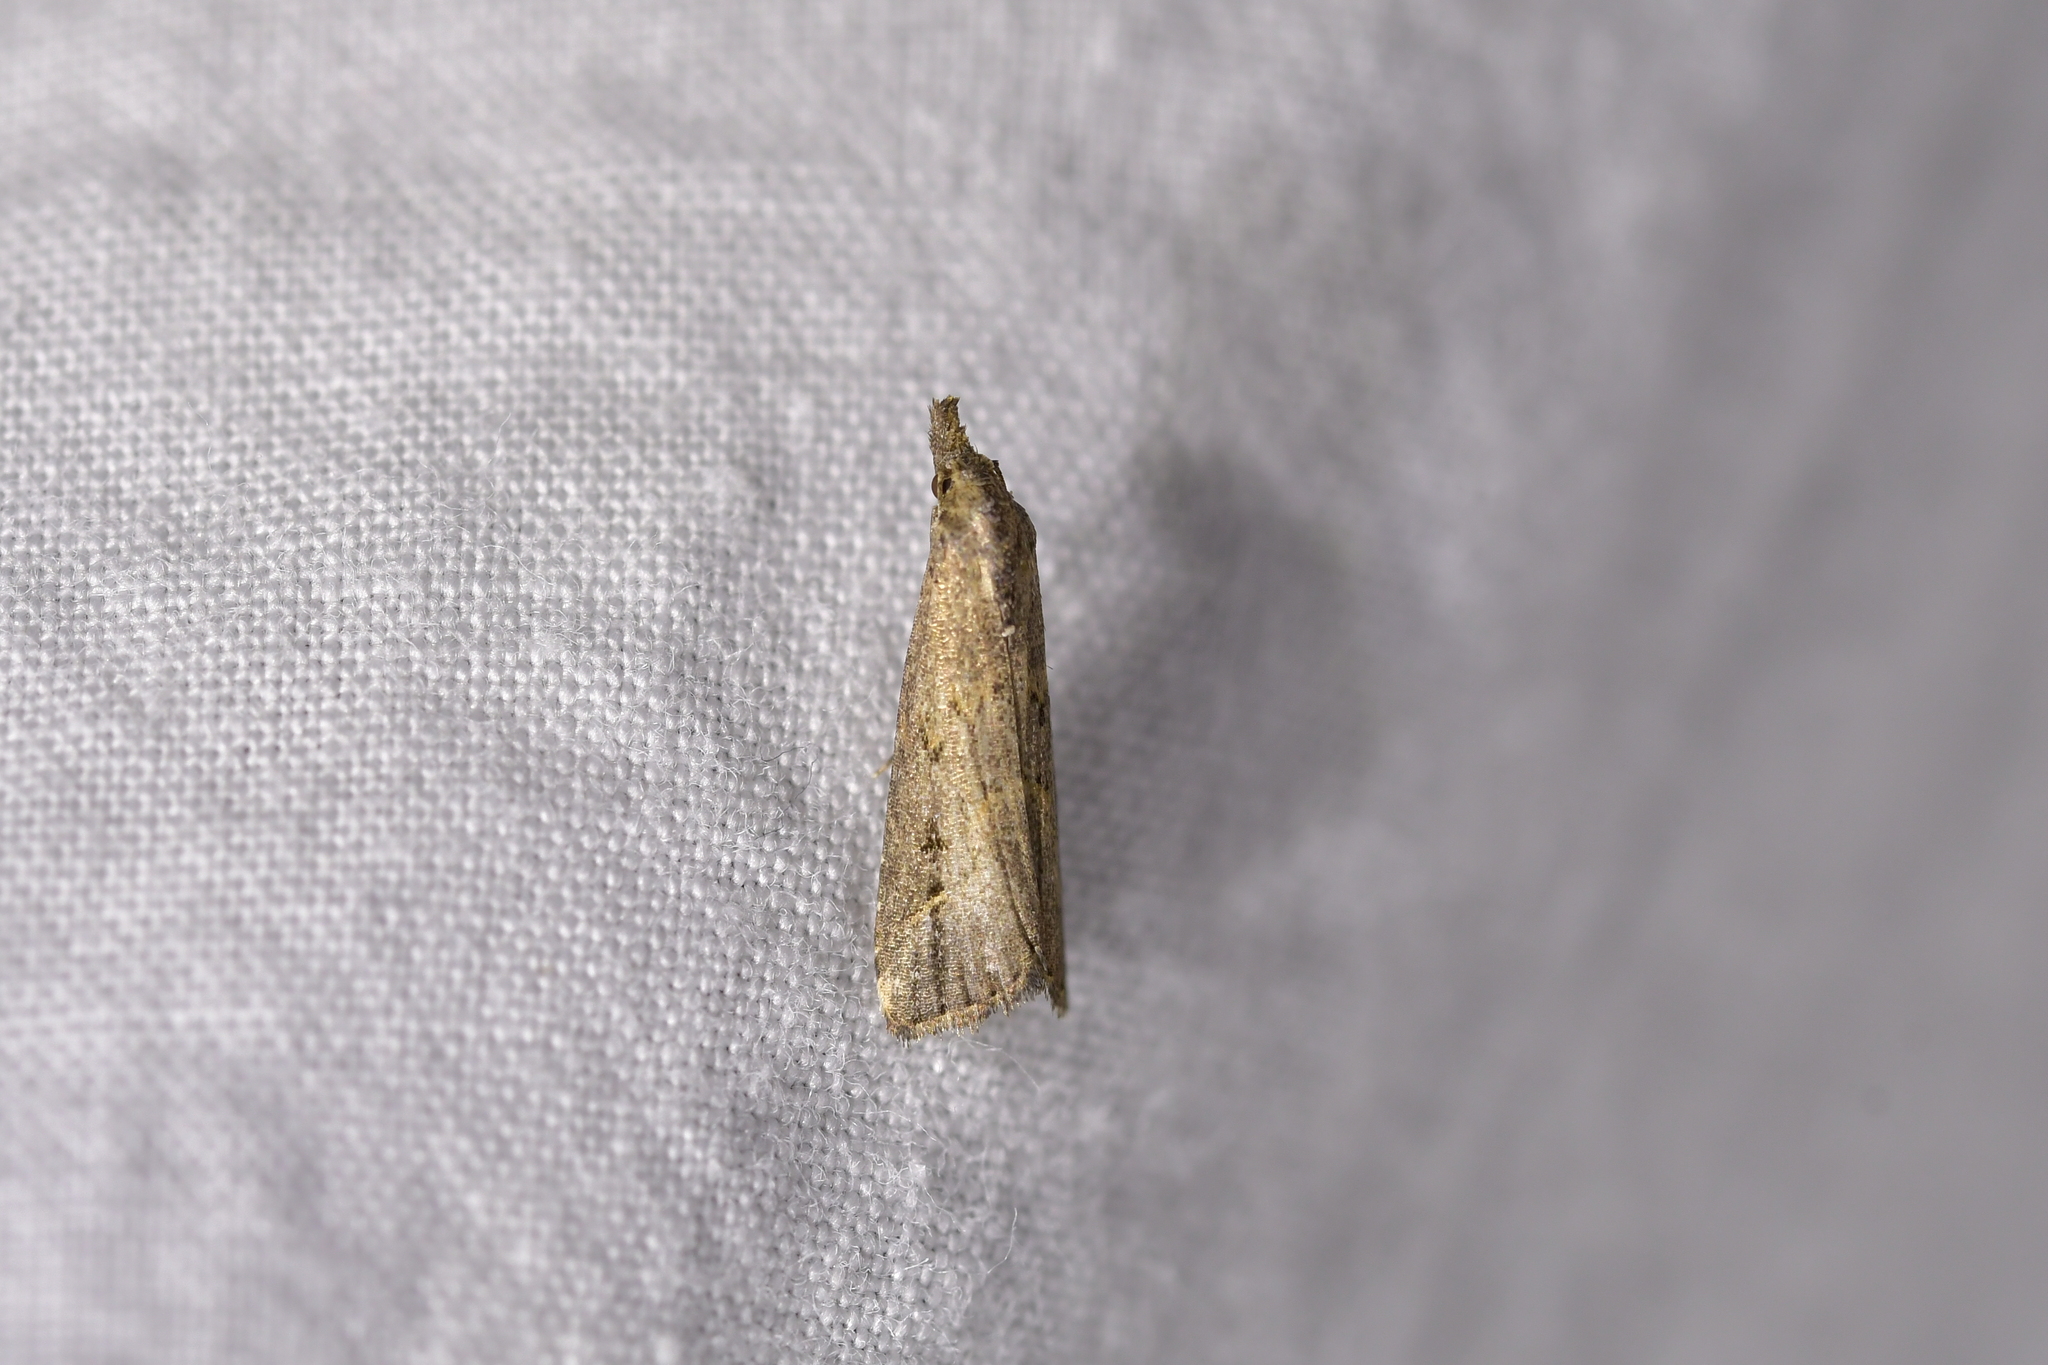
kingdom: Animalia
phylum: Arthropoda
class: Insecta
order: Lepidoptera
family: Erebidae
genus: Schrankia
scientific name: Schrankia costaestrigalis
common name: Pinion-streaked snout
